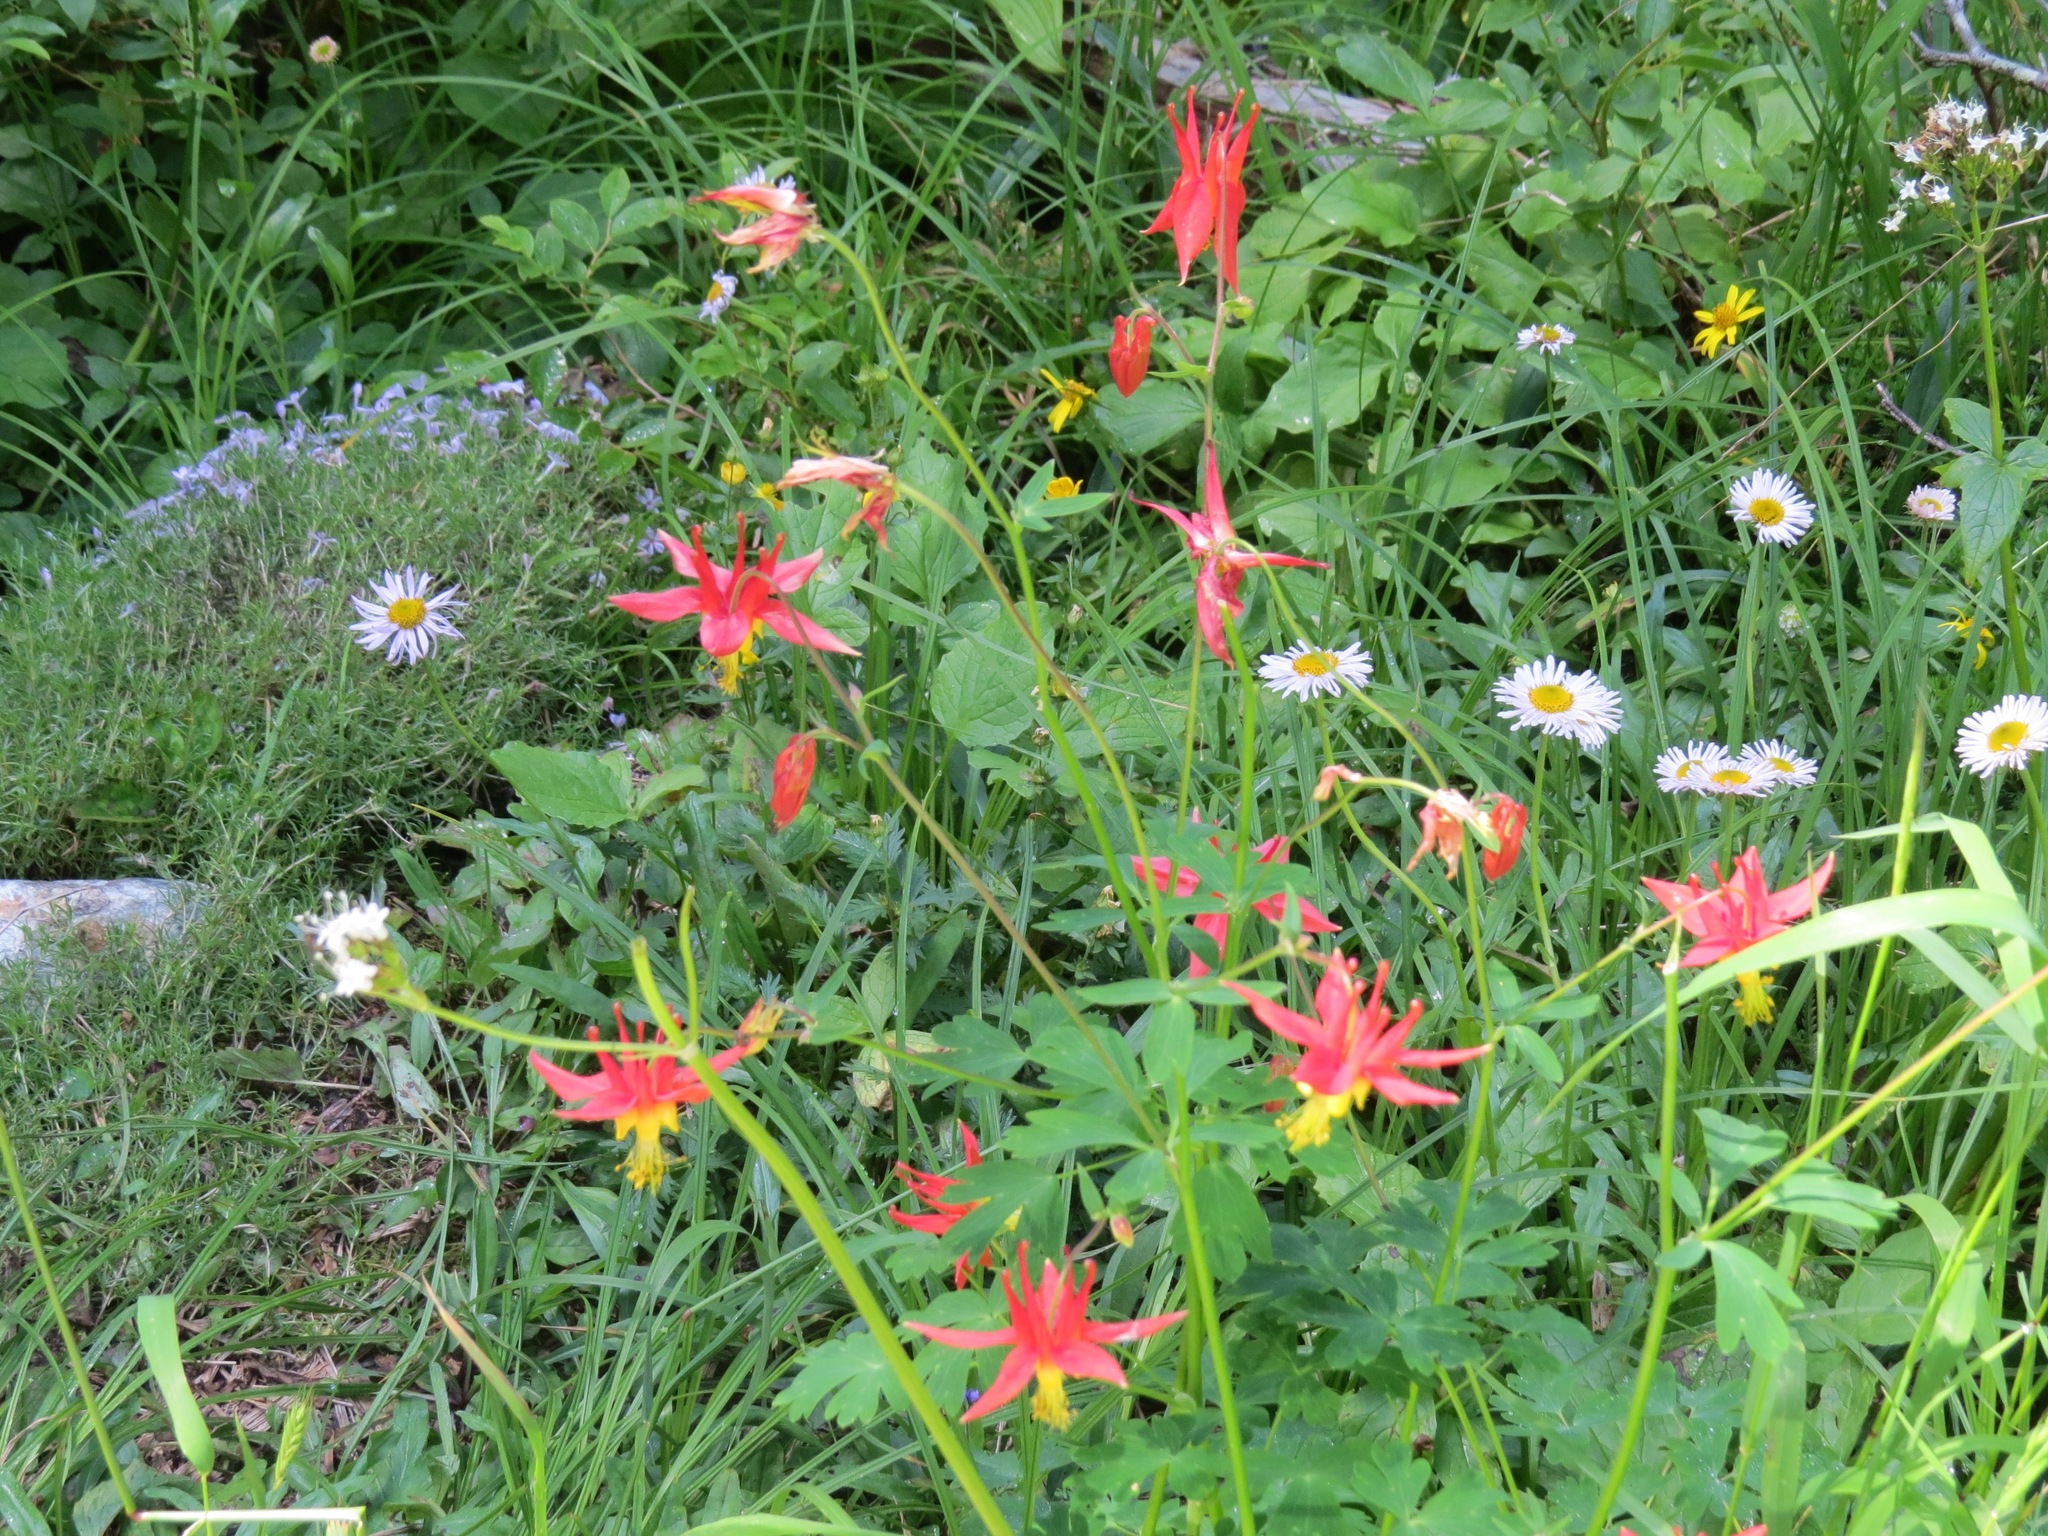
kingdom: Plantae
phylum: Tracheophyta
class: Magnoliopsida
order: Ranunculales
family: Ranunculaceae
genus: Aquilegia
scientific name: Aquilegia formosa
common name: Sitka columbine
